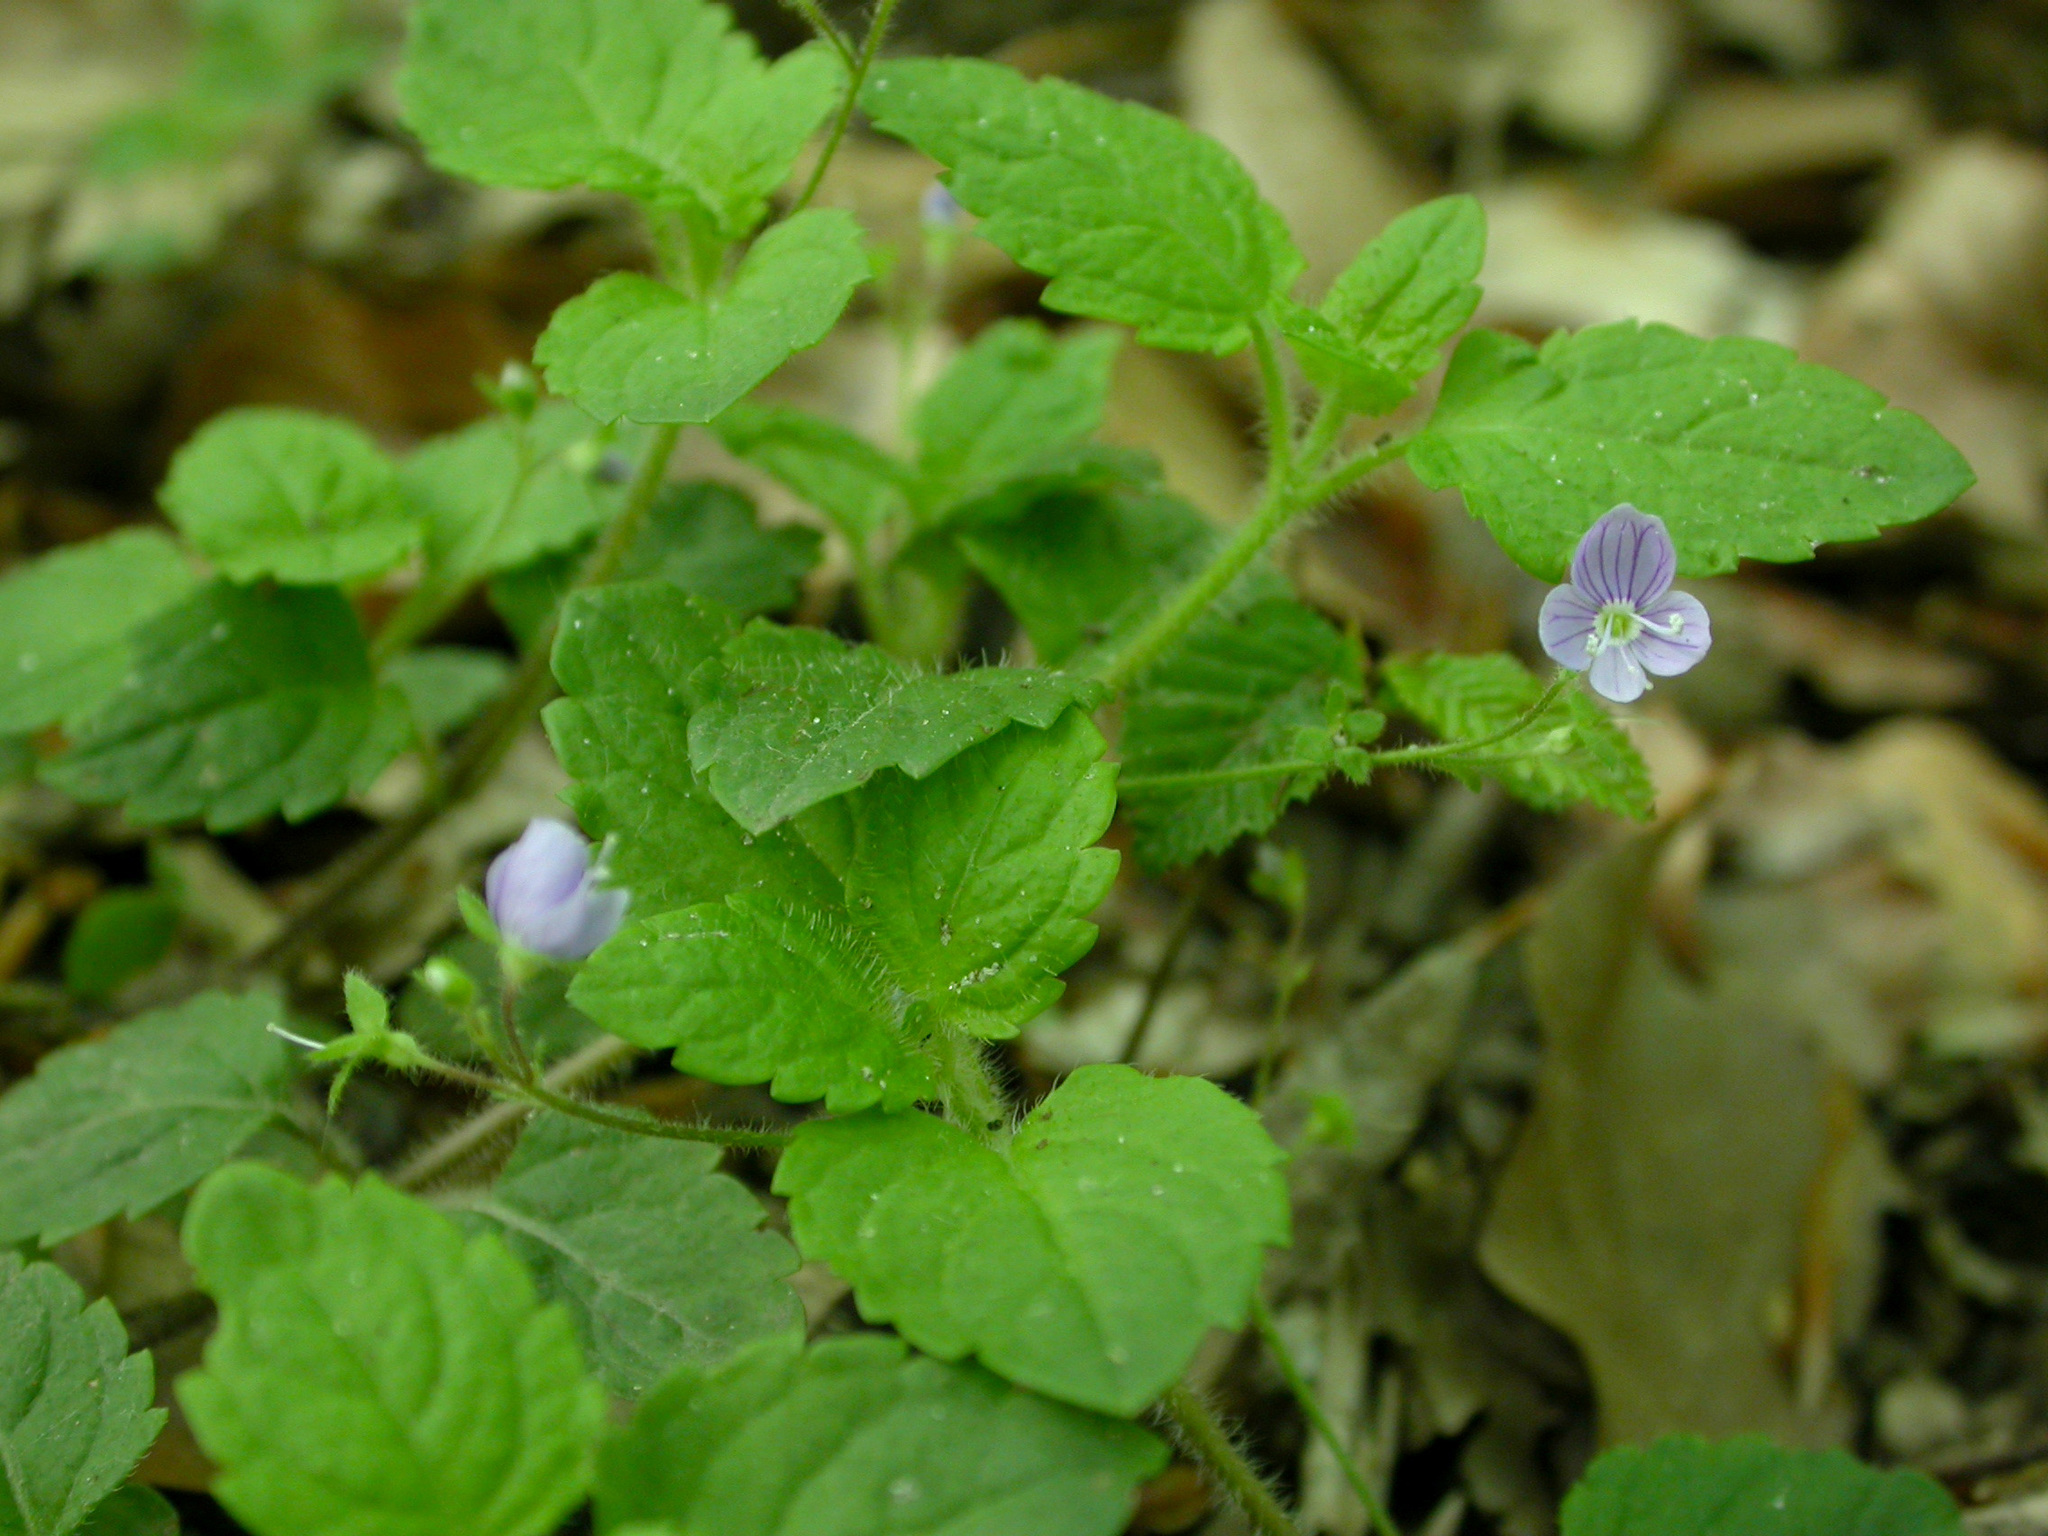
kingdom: Plantae
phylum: Tracheophyta
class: Magnoliopsida
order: Lamiales
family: Plantaginaceae
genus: Veronica
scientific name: Veronica montana
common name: Wood speedwell
